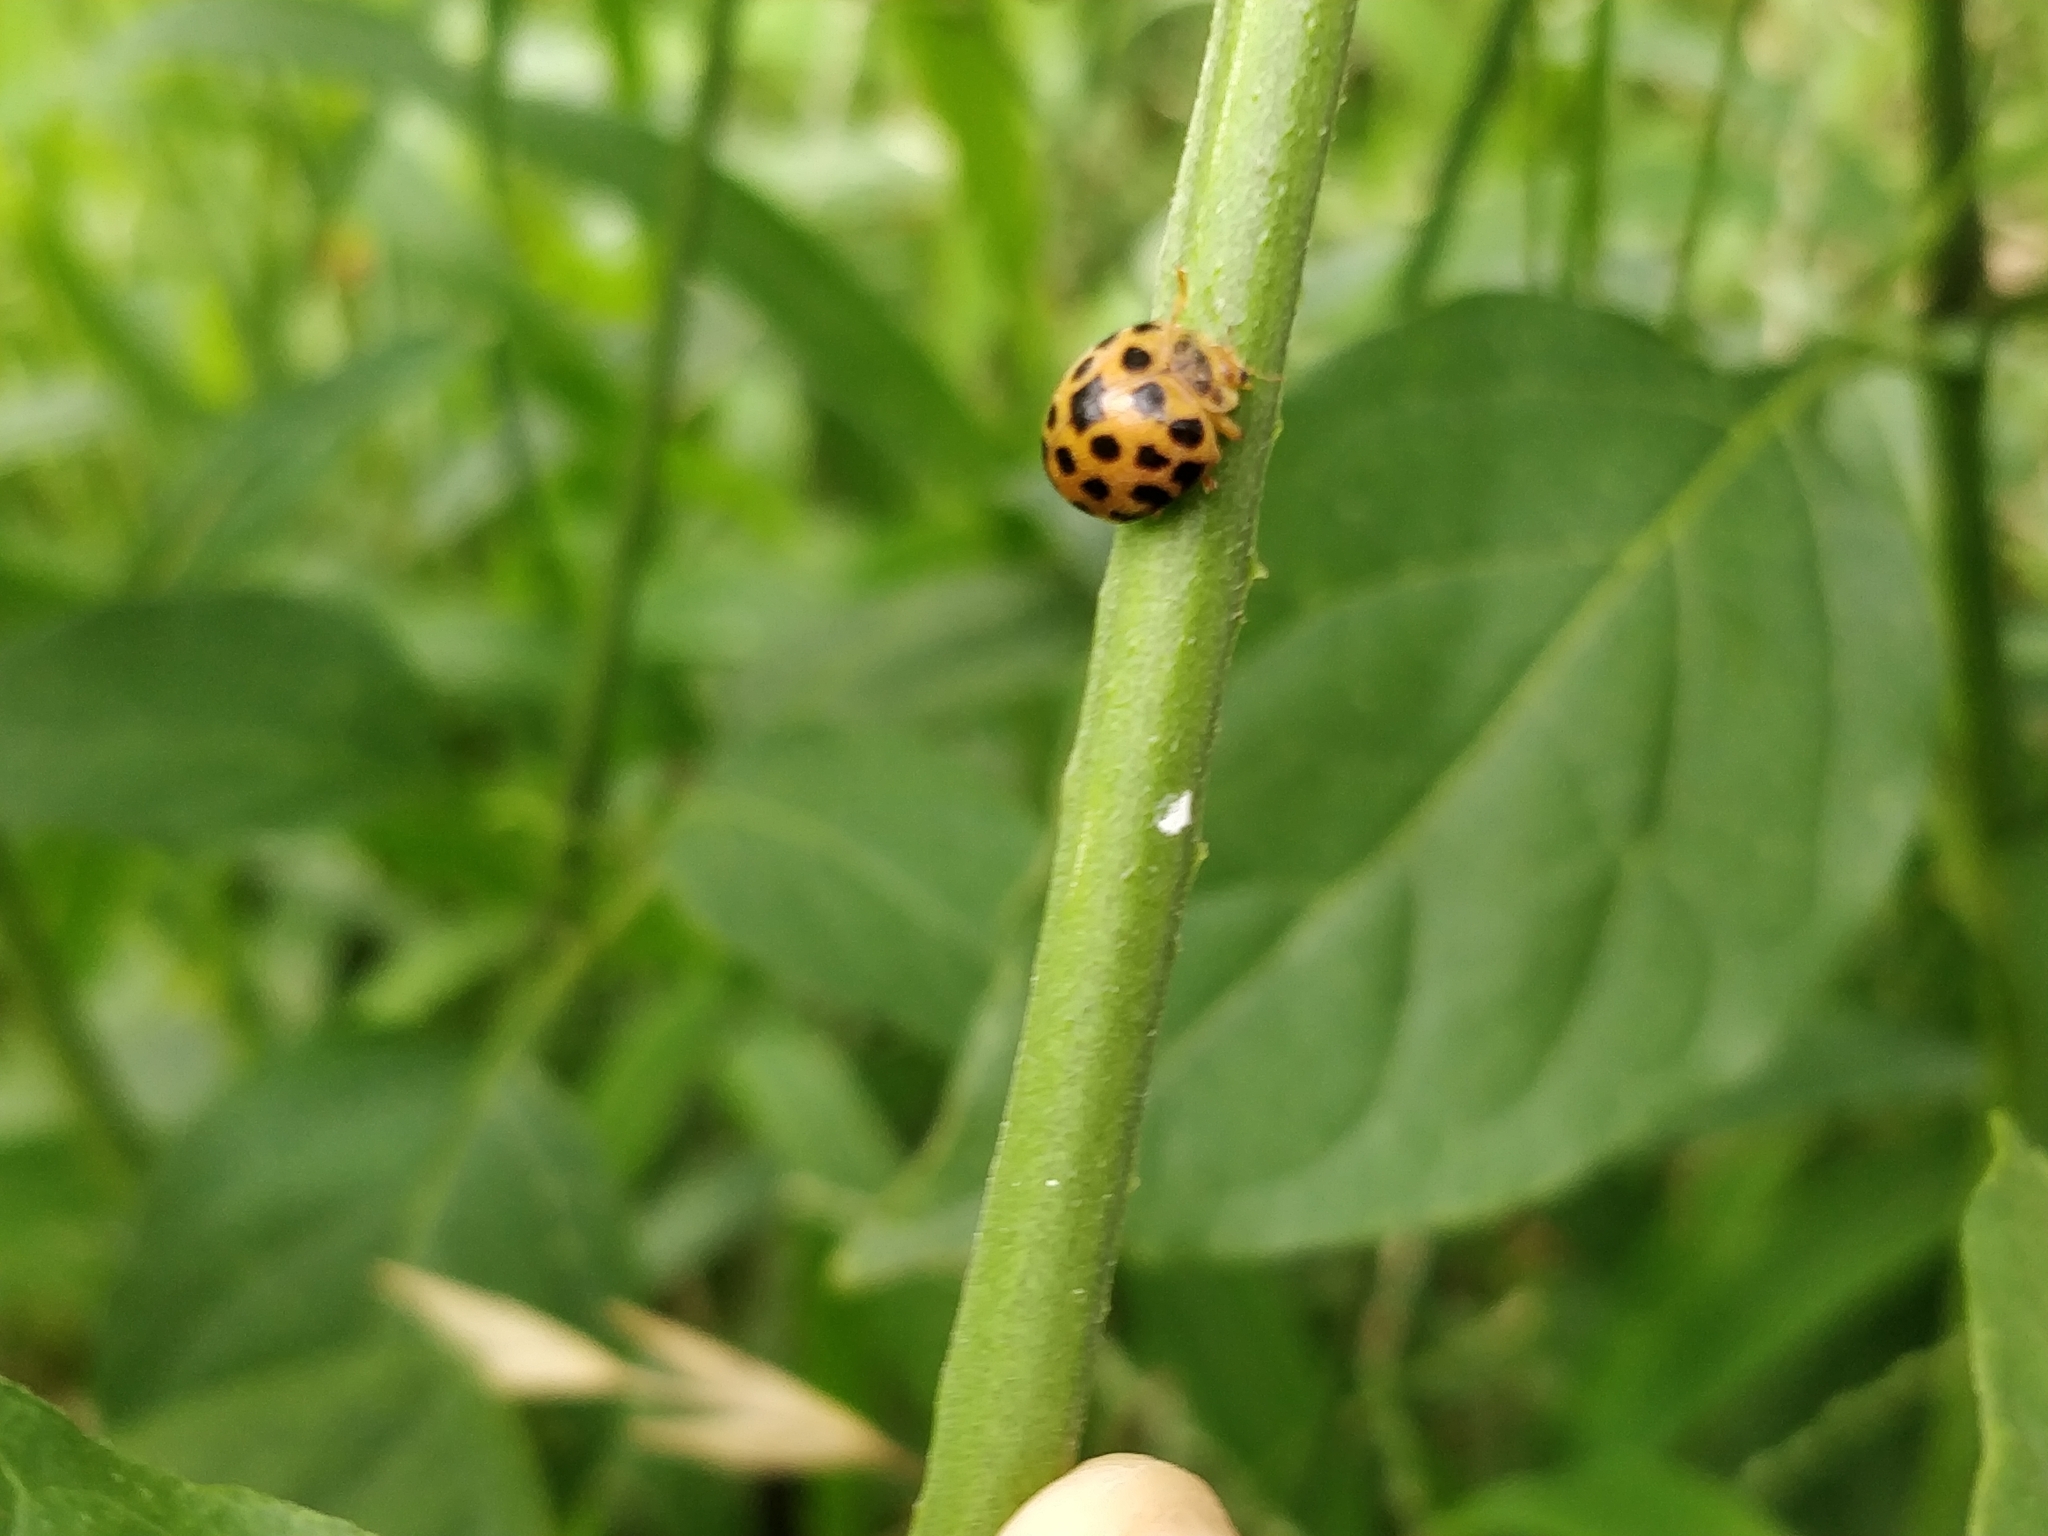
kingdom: Animalia
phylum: Arthropoda
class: Insecta
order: Coleoptera
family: Coccinellidae
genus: Henosepilachna
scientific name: Henosepilachna vigintioctopunctata
